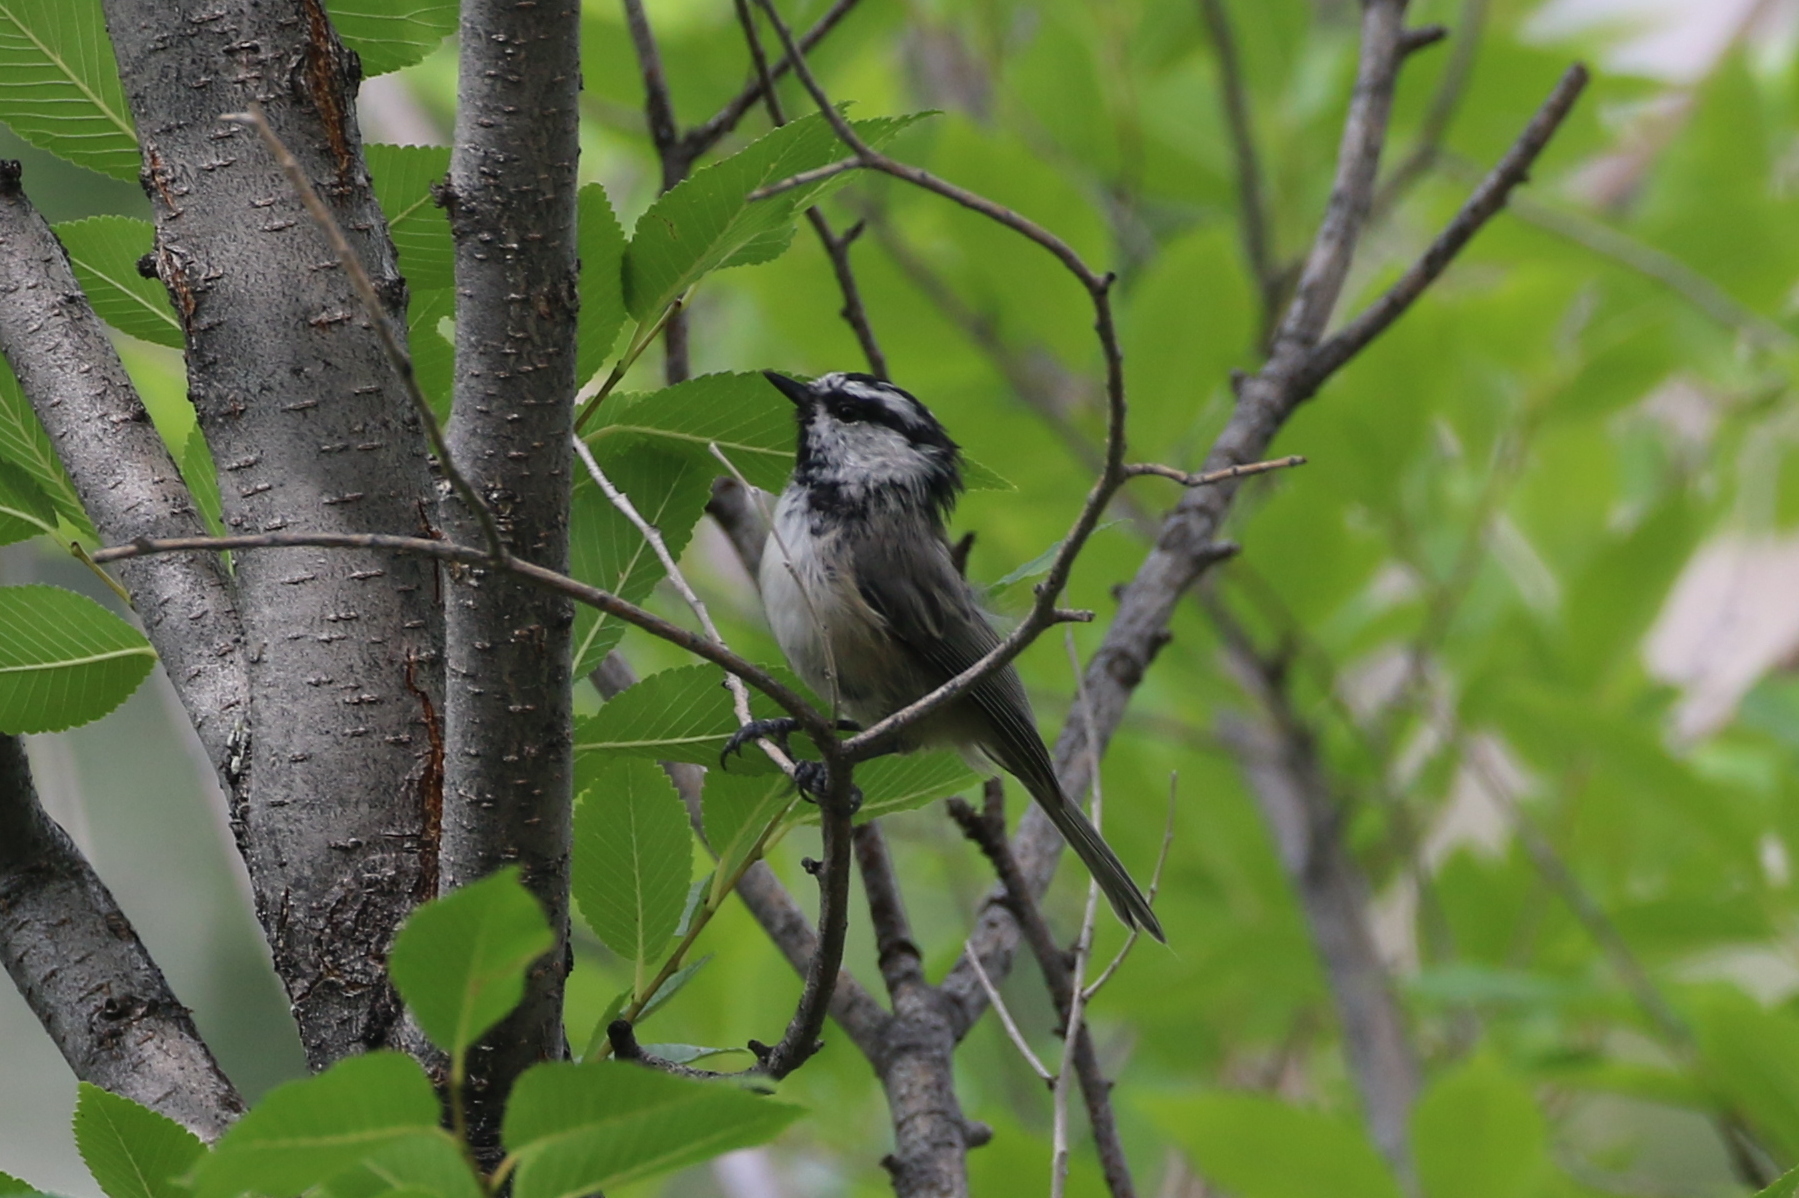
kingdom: Animalia
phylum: Chordata
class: Aves
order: Passeriformes
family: Paridae
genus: Poecile
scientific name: Poecile gambeli
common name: Mountain chickadee
